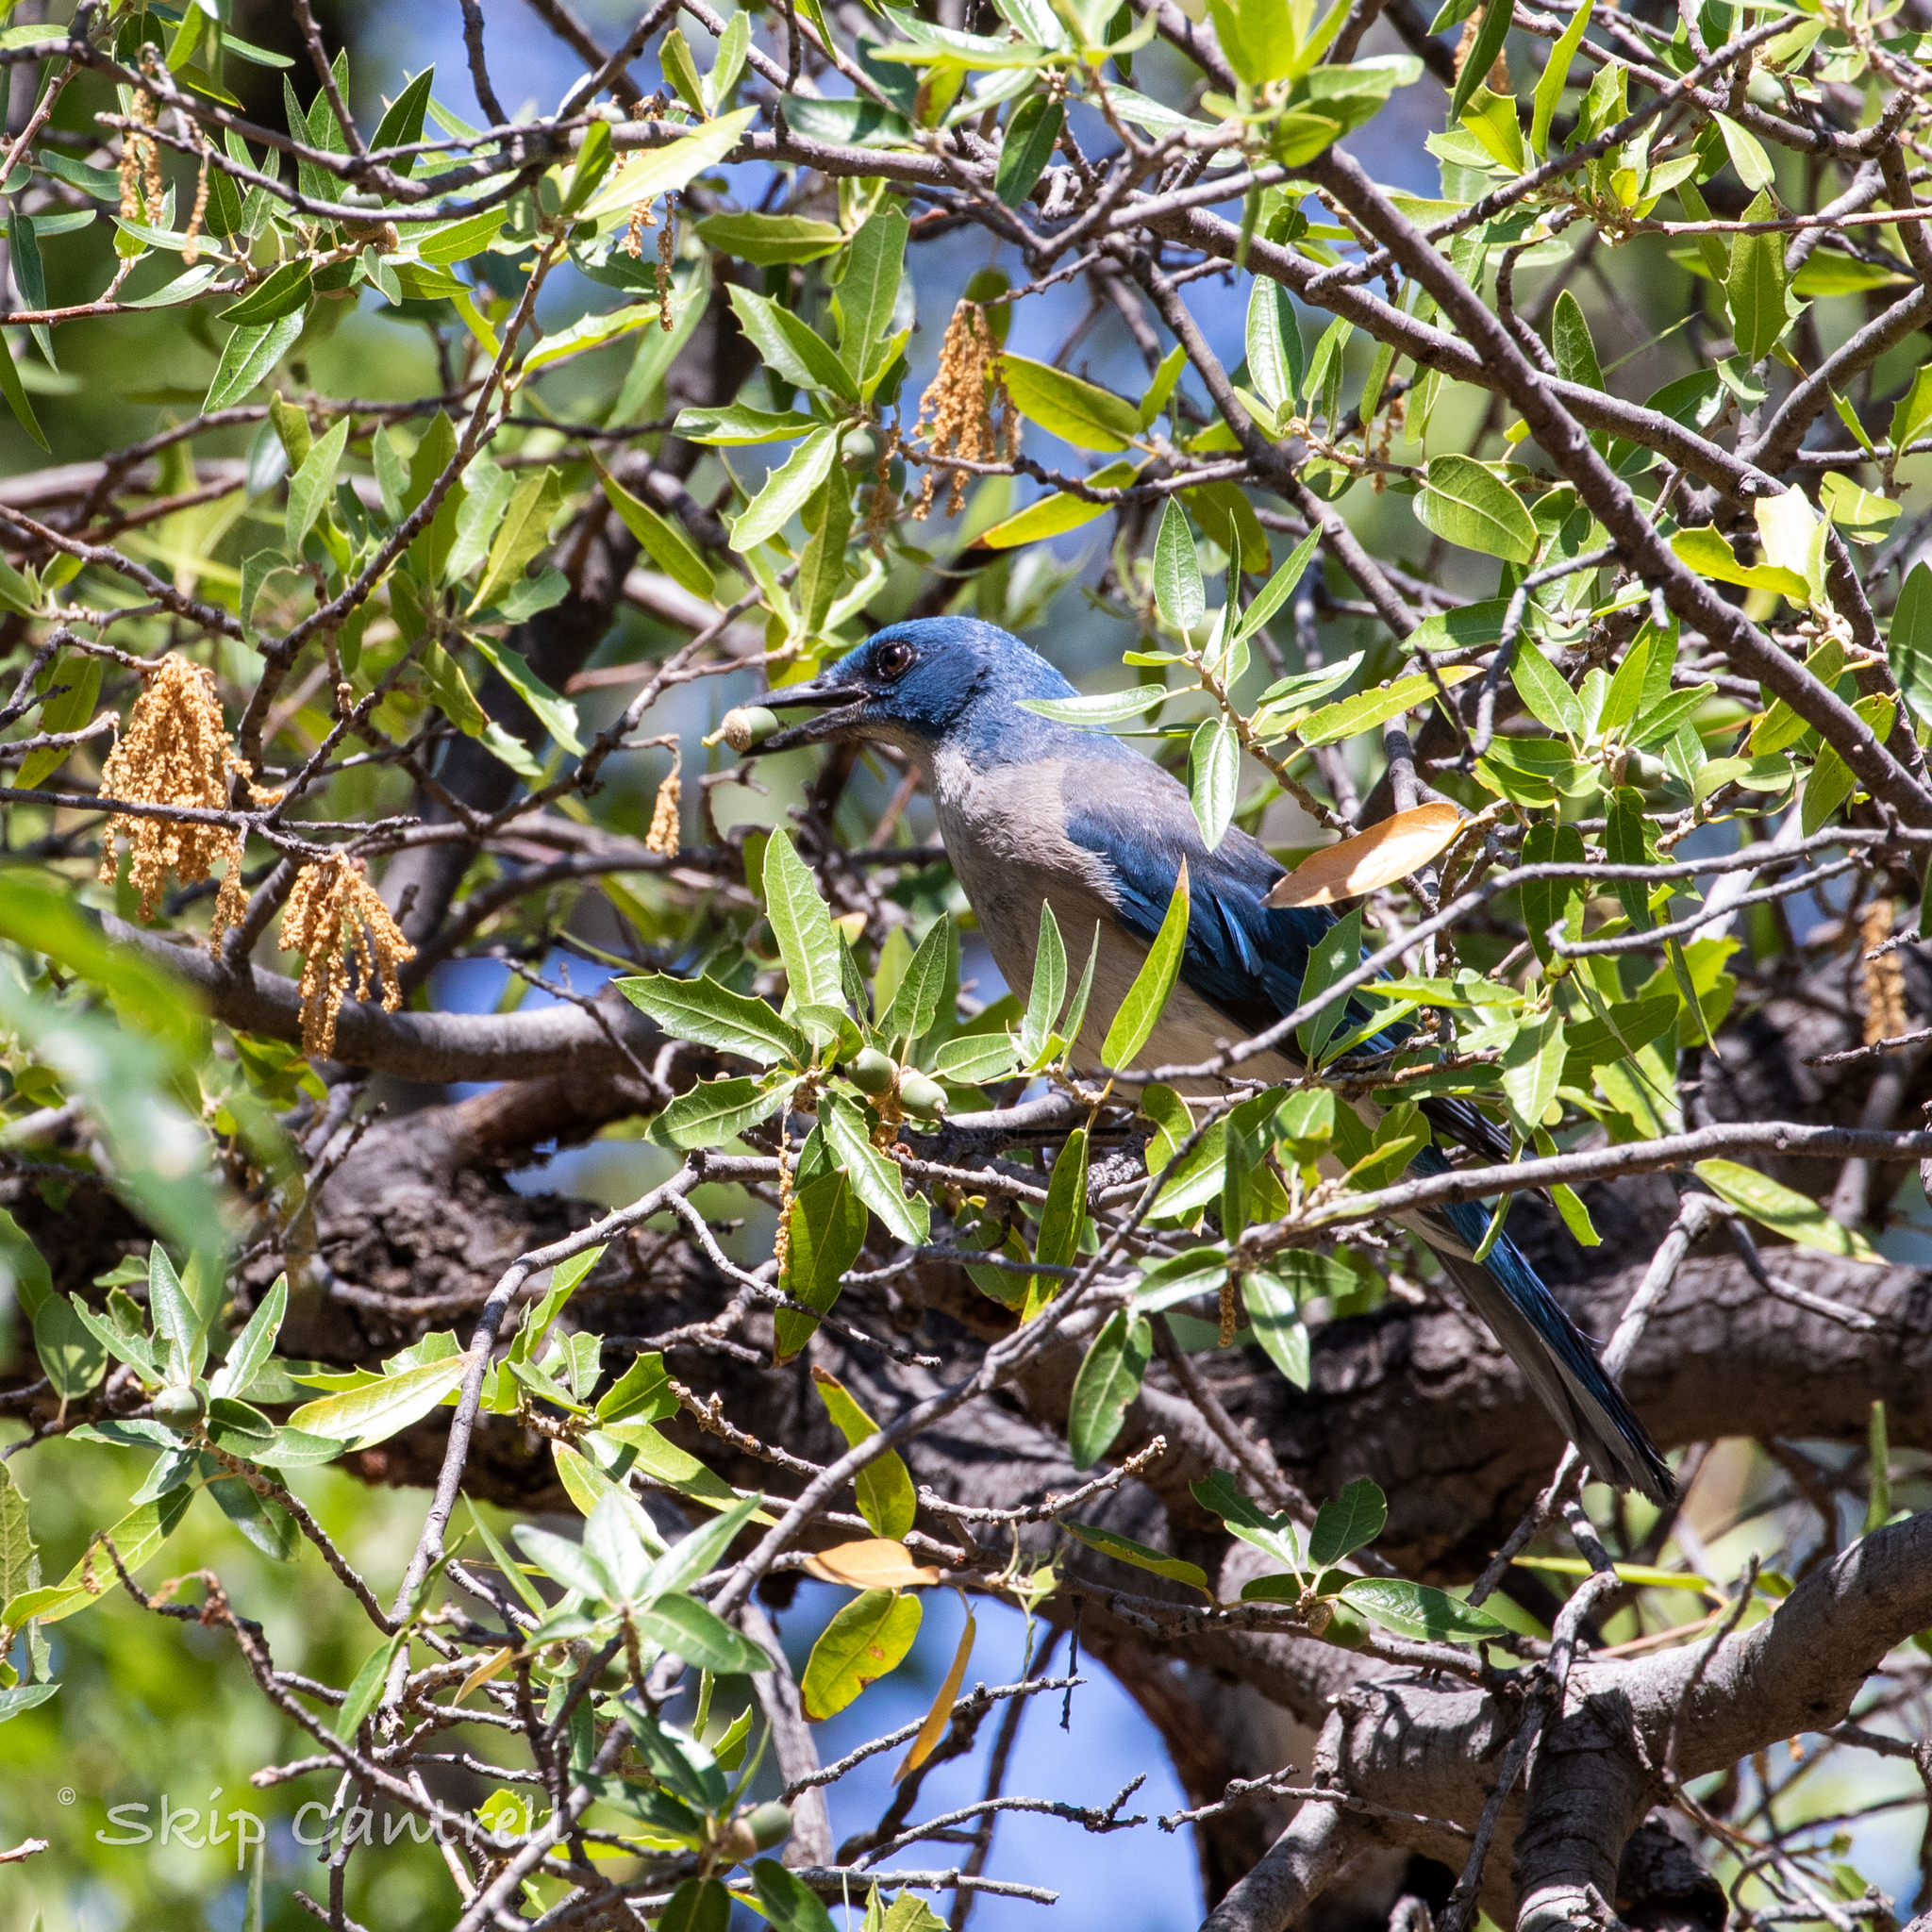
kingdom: Animalia
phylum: Chordata
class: Aves
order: Passeriformes
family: Corvidae
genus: Aphelocoma
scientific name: Aphelocoma wollweberi
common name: Mexican jay
